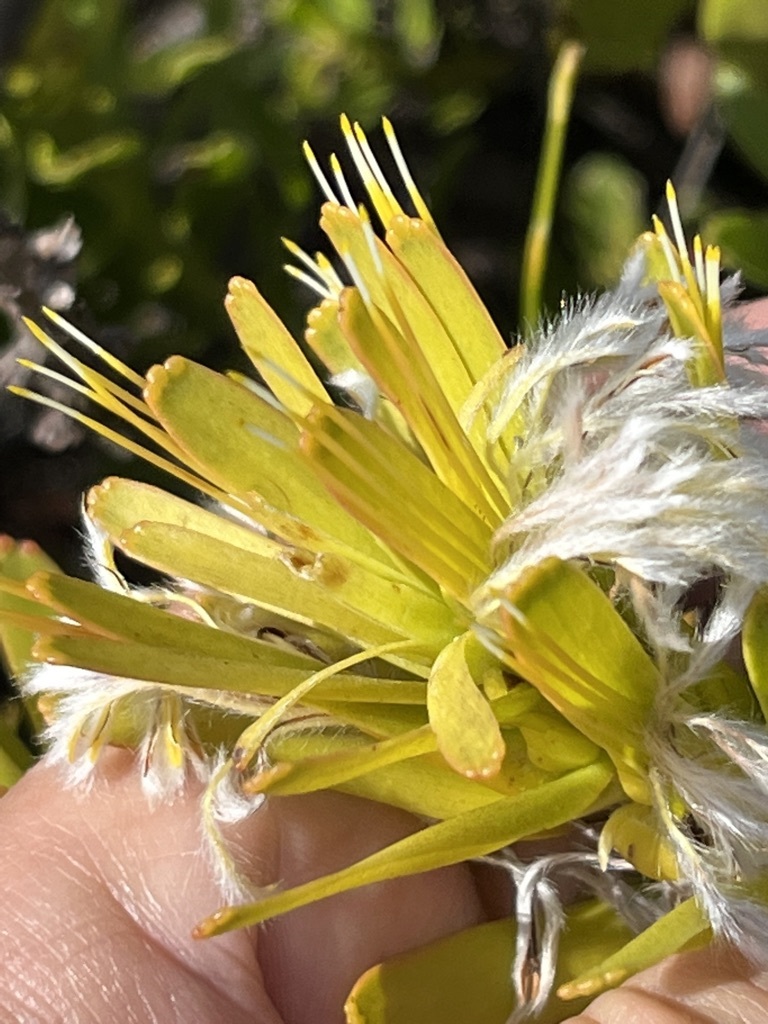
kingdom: Plantae
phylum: Tracheophyta
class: Magnoliopsida
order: Proteales
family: Proteaceae
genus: Mimetes
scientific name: Mimetes cucullatus
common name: Common pagoda
